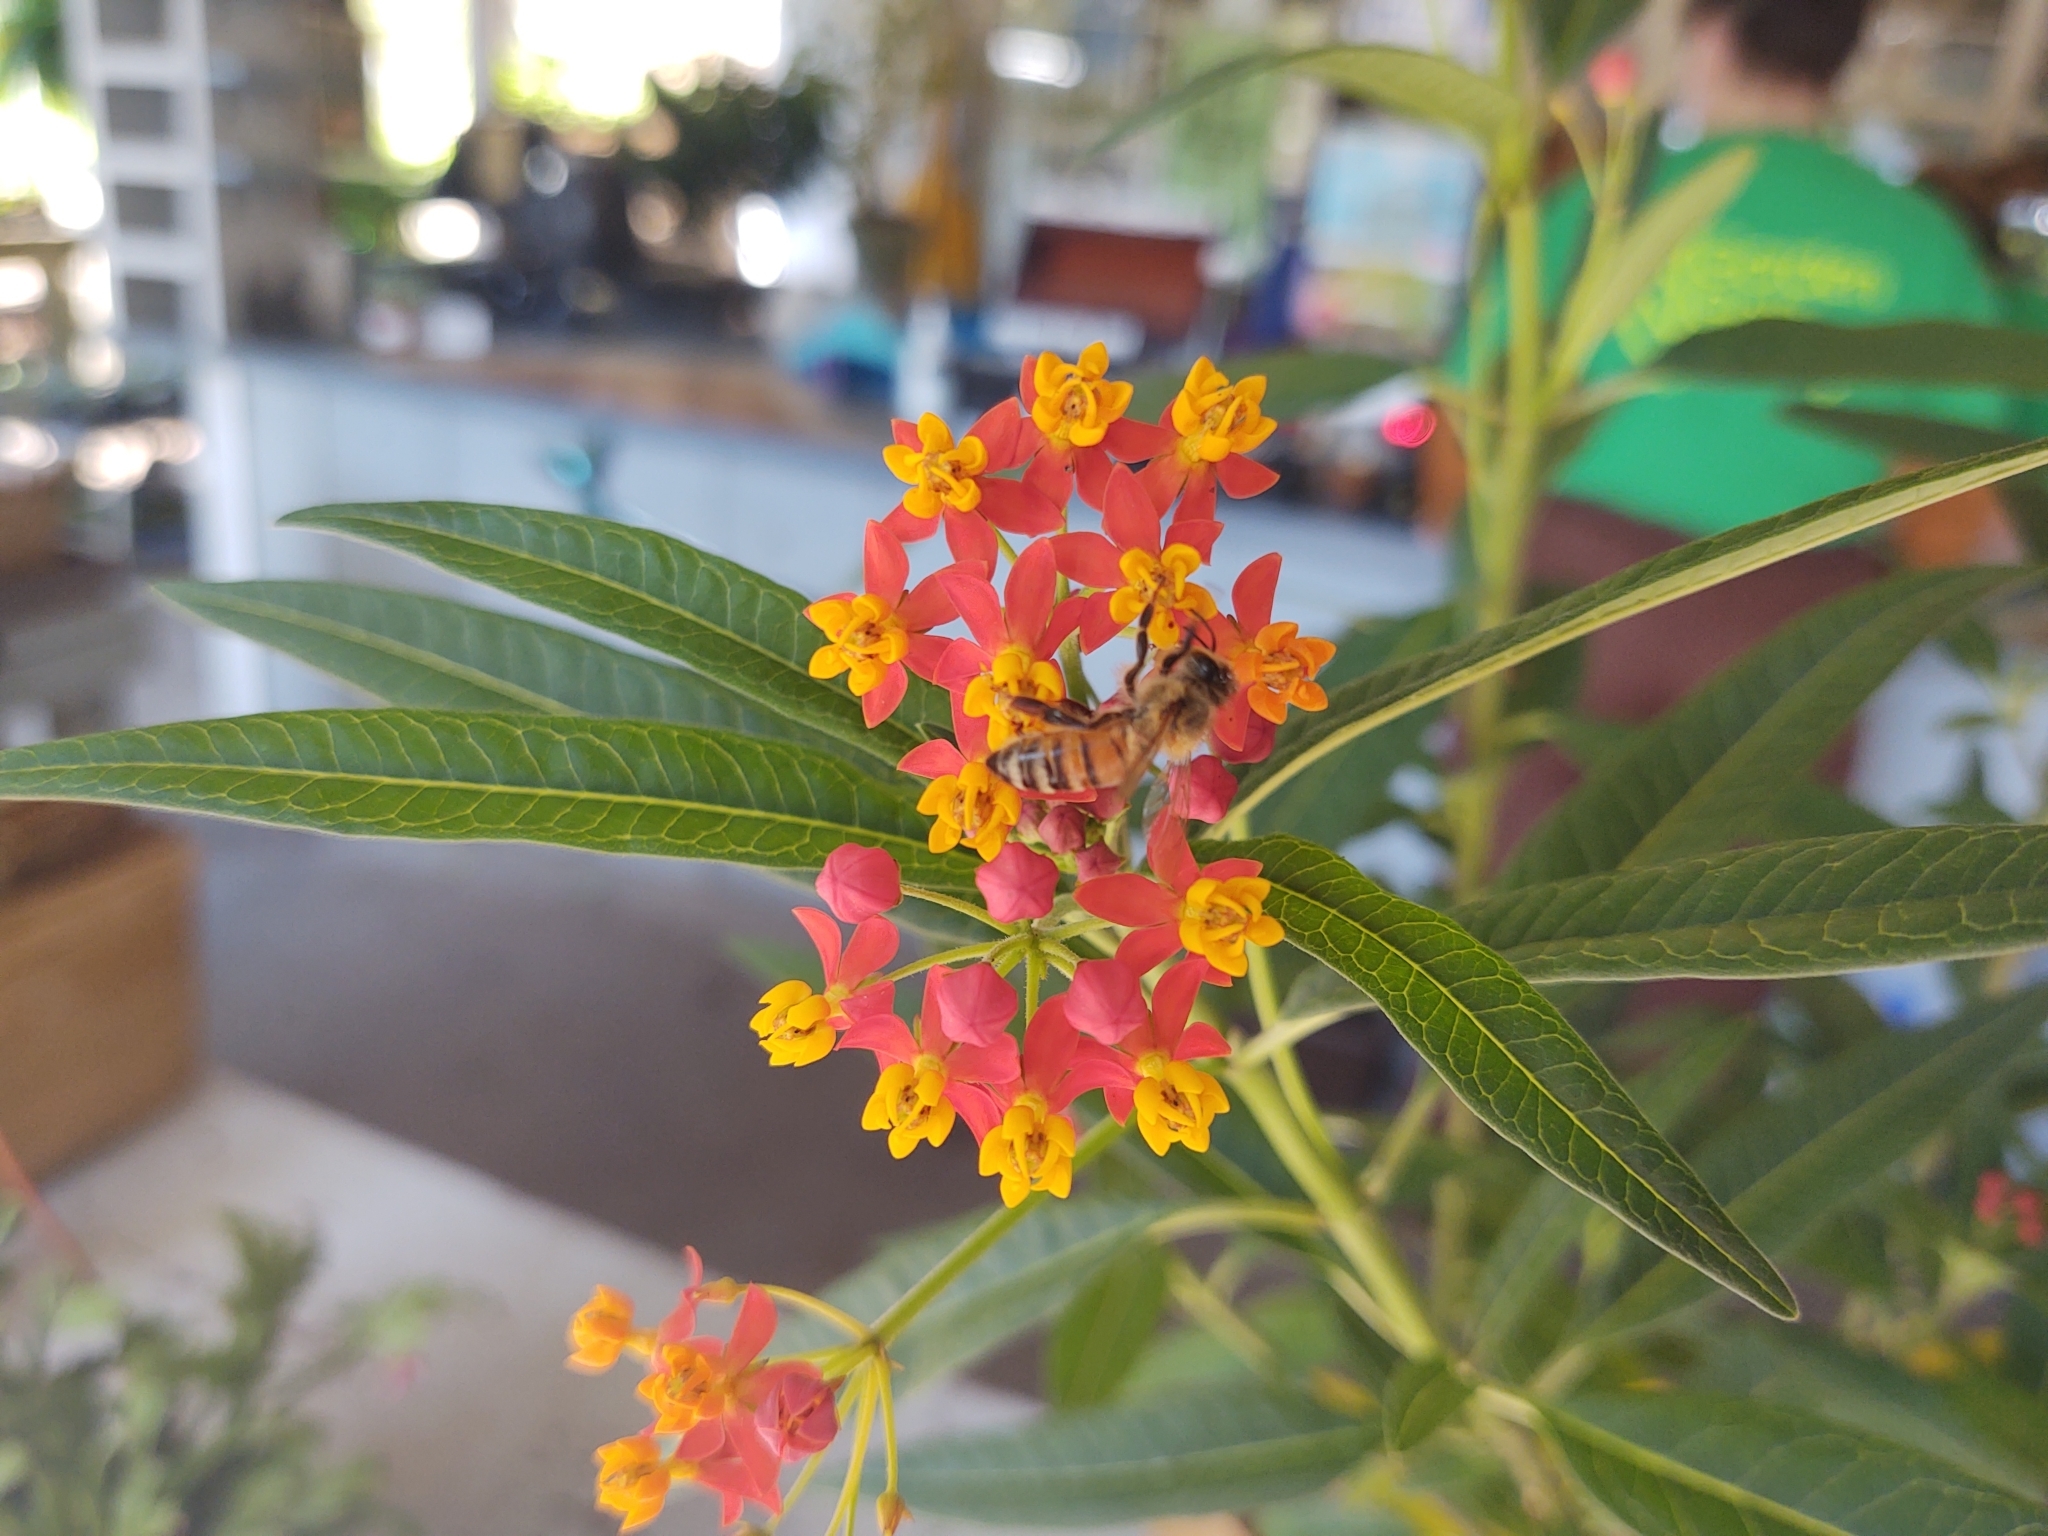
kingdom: Animalia
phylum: Arthropoda
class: Insecta
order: Hymenoptera
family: Apidae
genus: Apis
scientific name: Apis mellifera
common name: Honey bee
